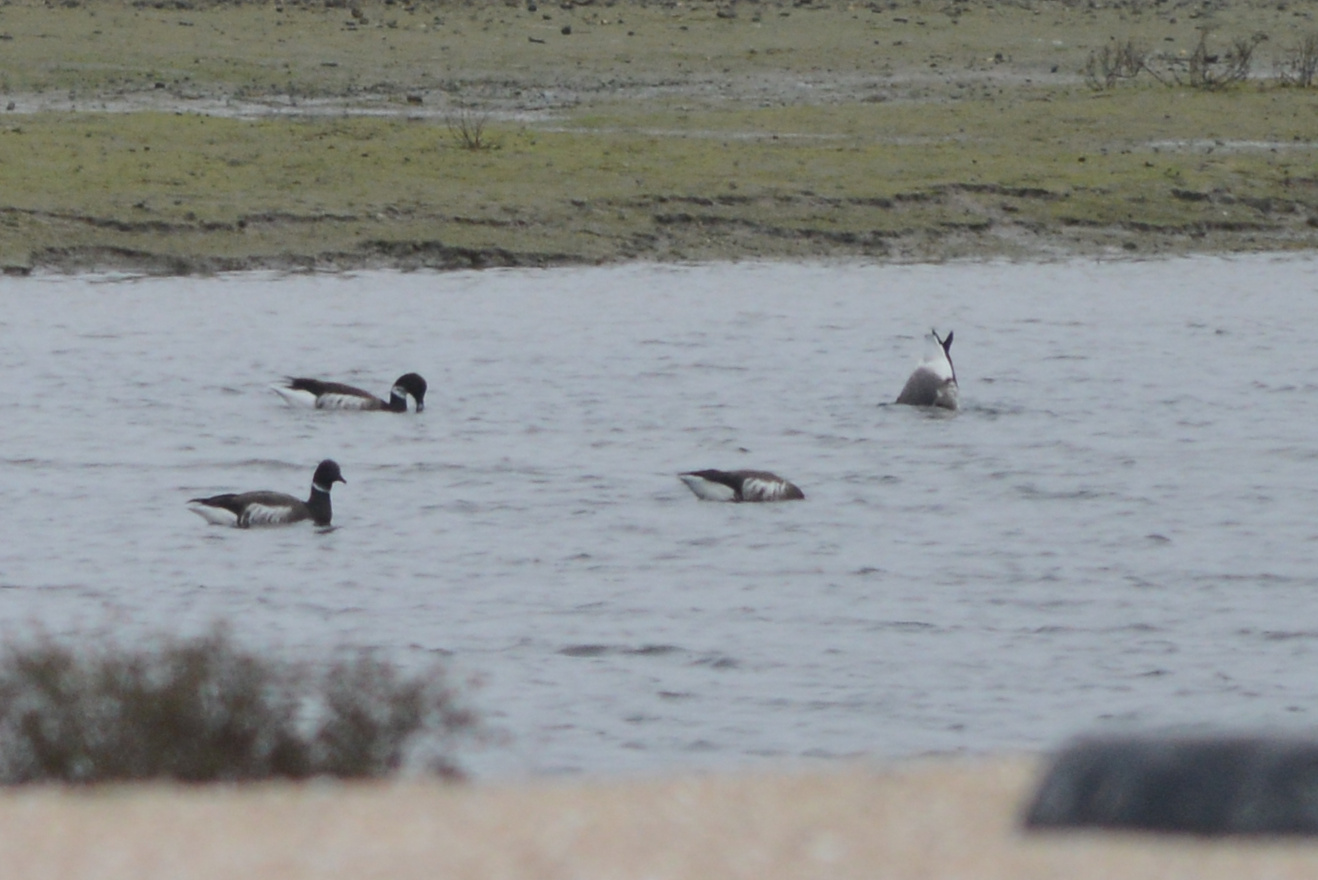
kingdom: Animalia
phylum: Chordata
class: Aves
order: Anseriformes
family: Anatidae
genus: Branta
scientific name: Branta bernicla
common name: Brant goose
